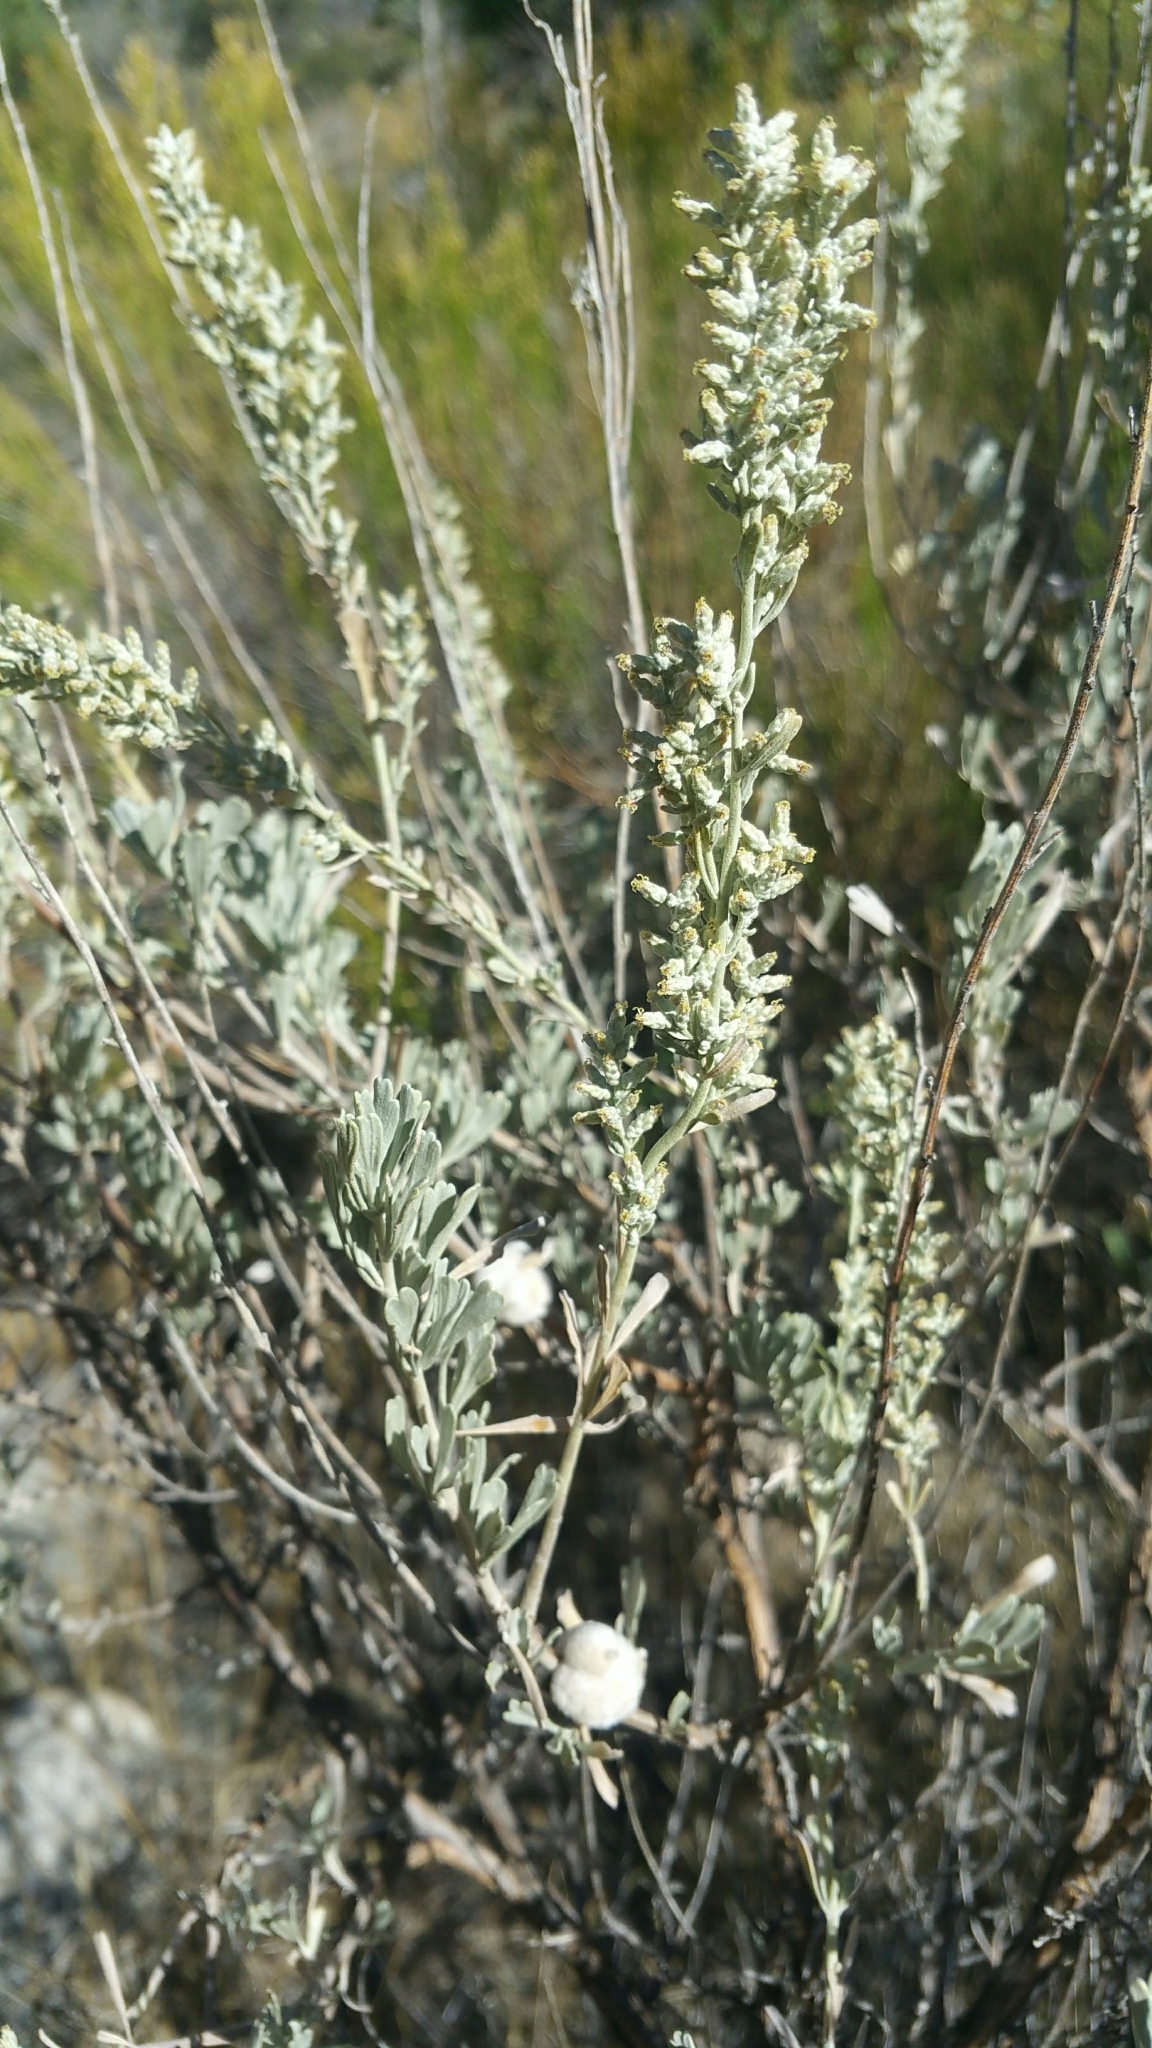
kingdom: Plantae
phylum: Tracheophyta
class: Magnoliopsida
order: Asterales
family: Asteraceae
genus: Artemisia
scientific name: Artemisia tridentata
